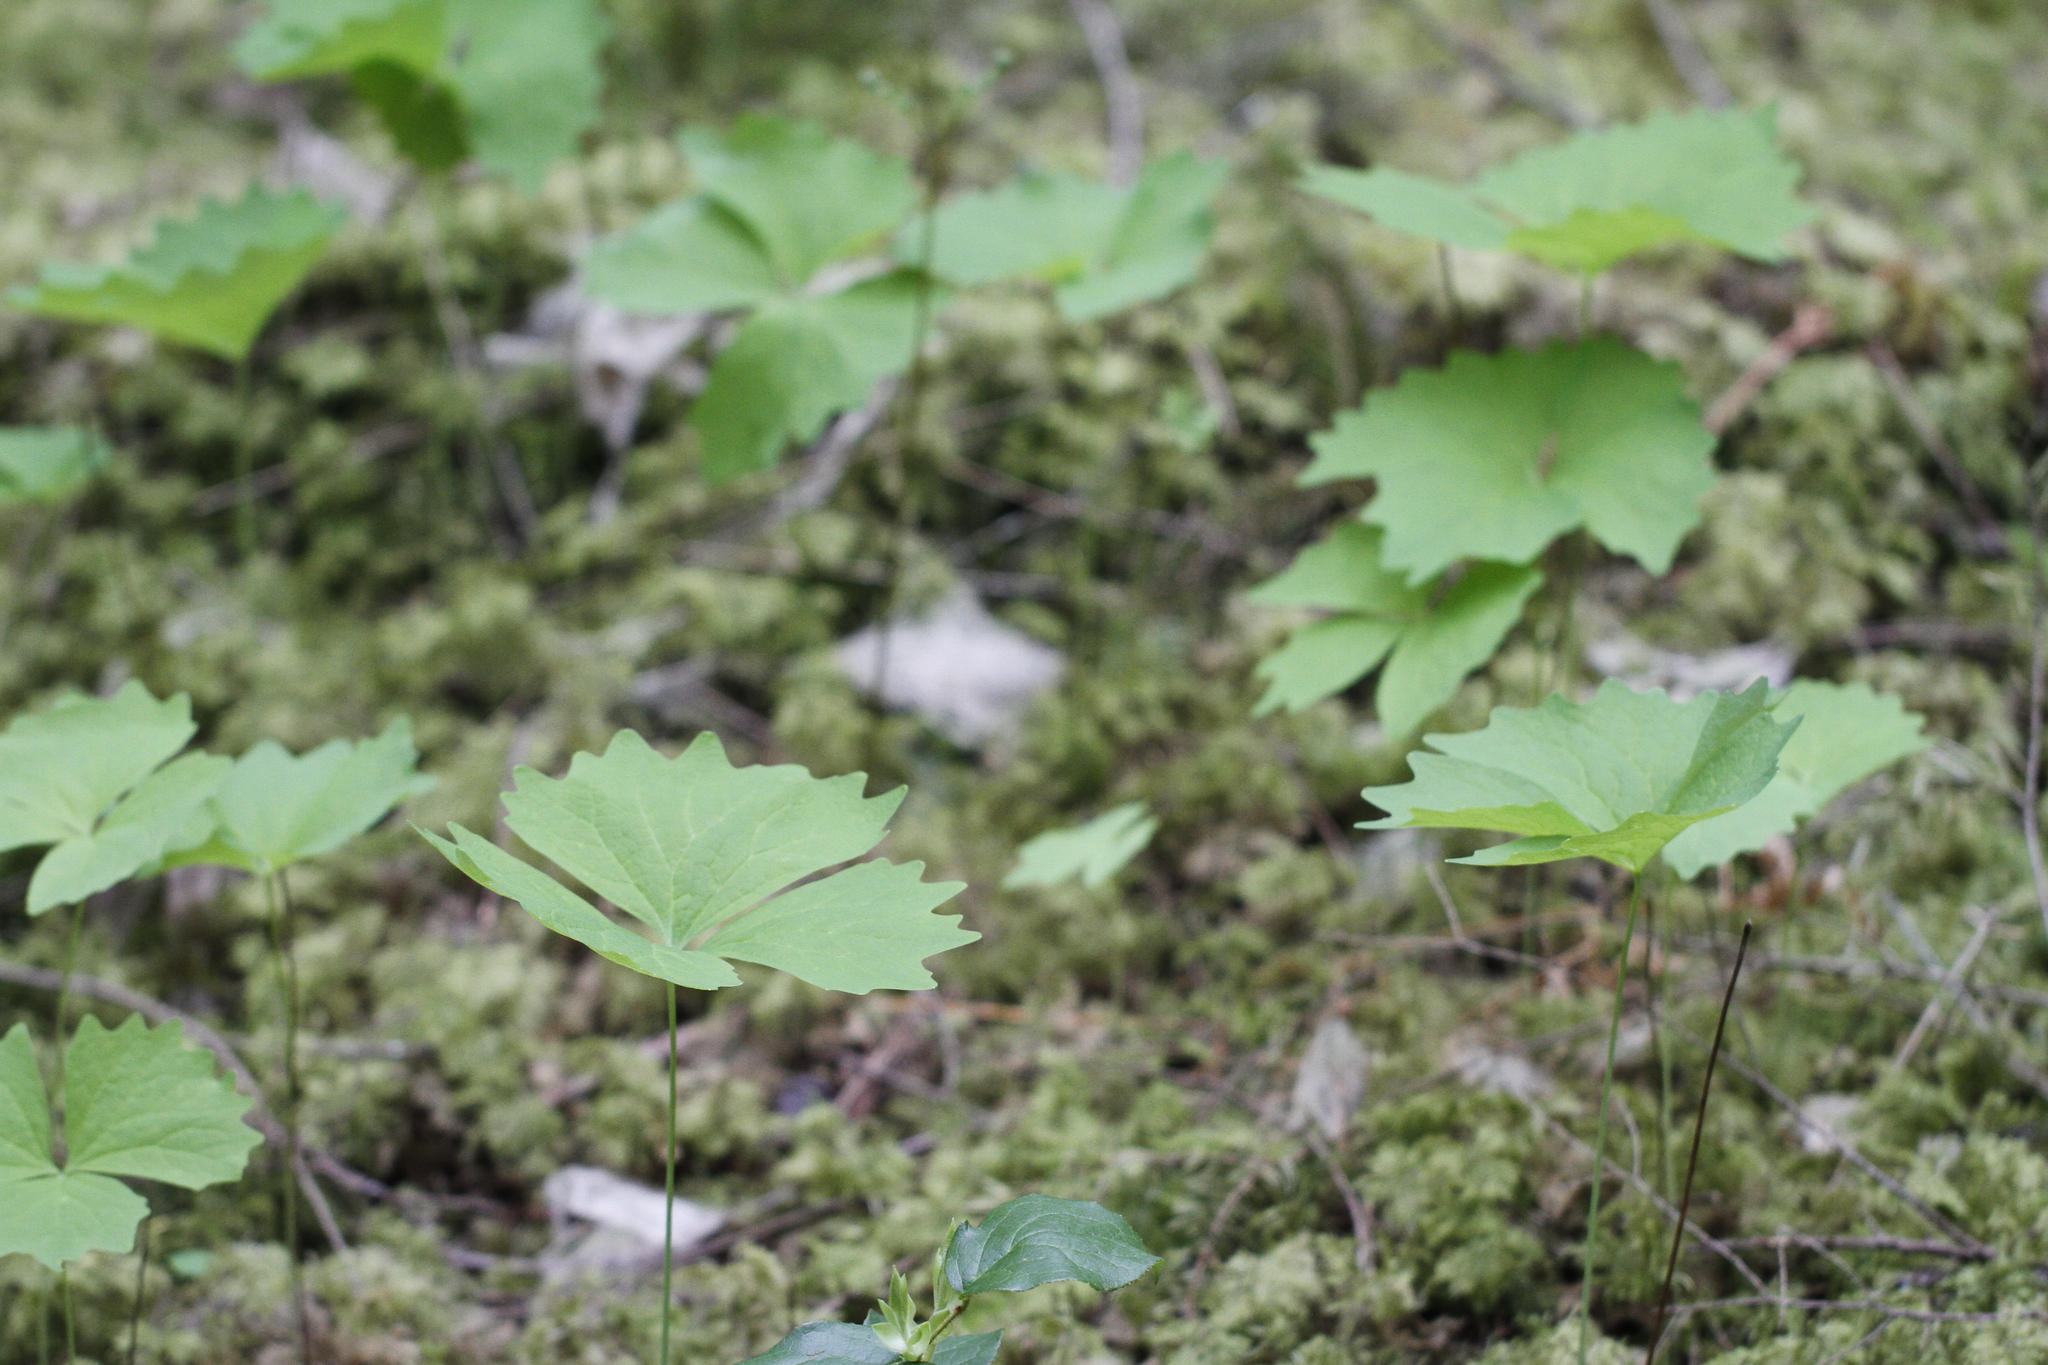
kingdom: Plantae
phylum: Tracheophyta
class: Magnoliopsida
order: Ranunculales
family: Berberidaceae
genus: Achlys
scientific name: Achlys triphylla
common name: Vanilla-leaf
